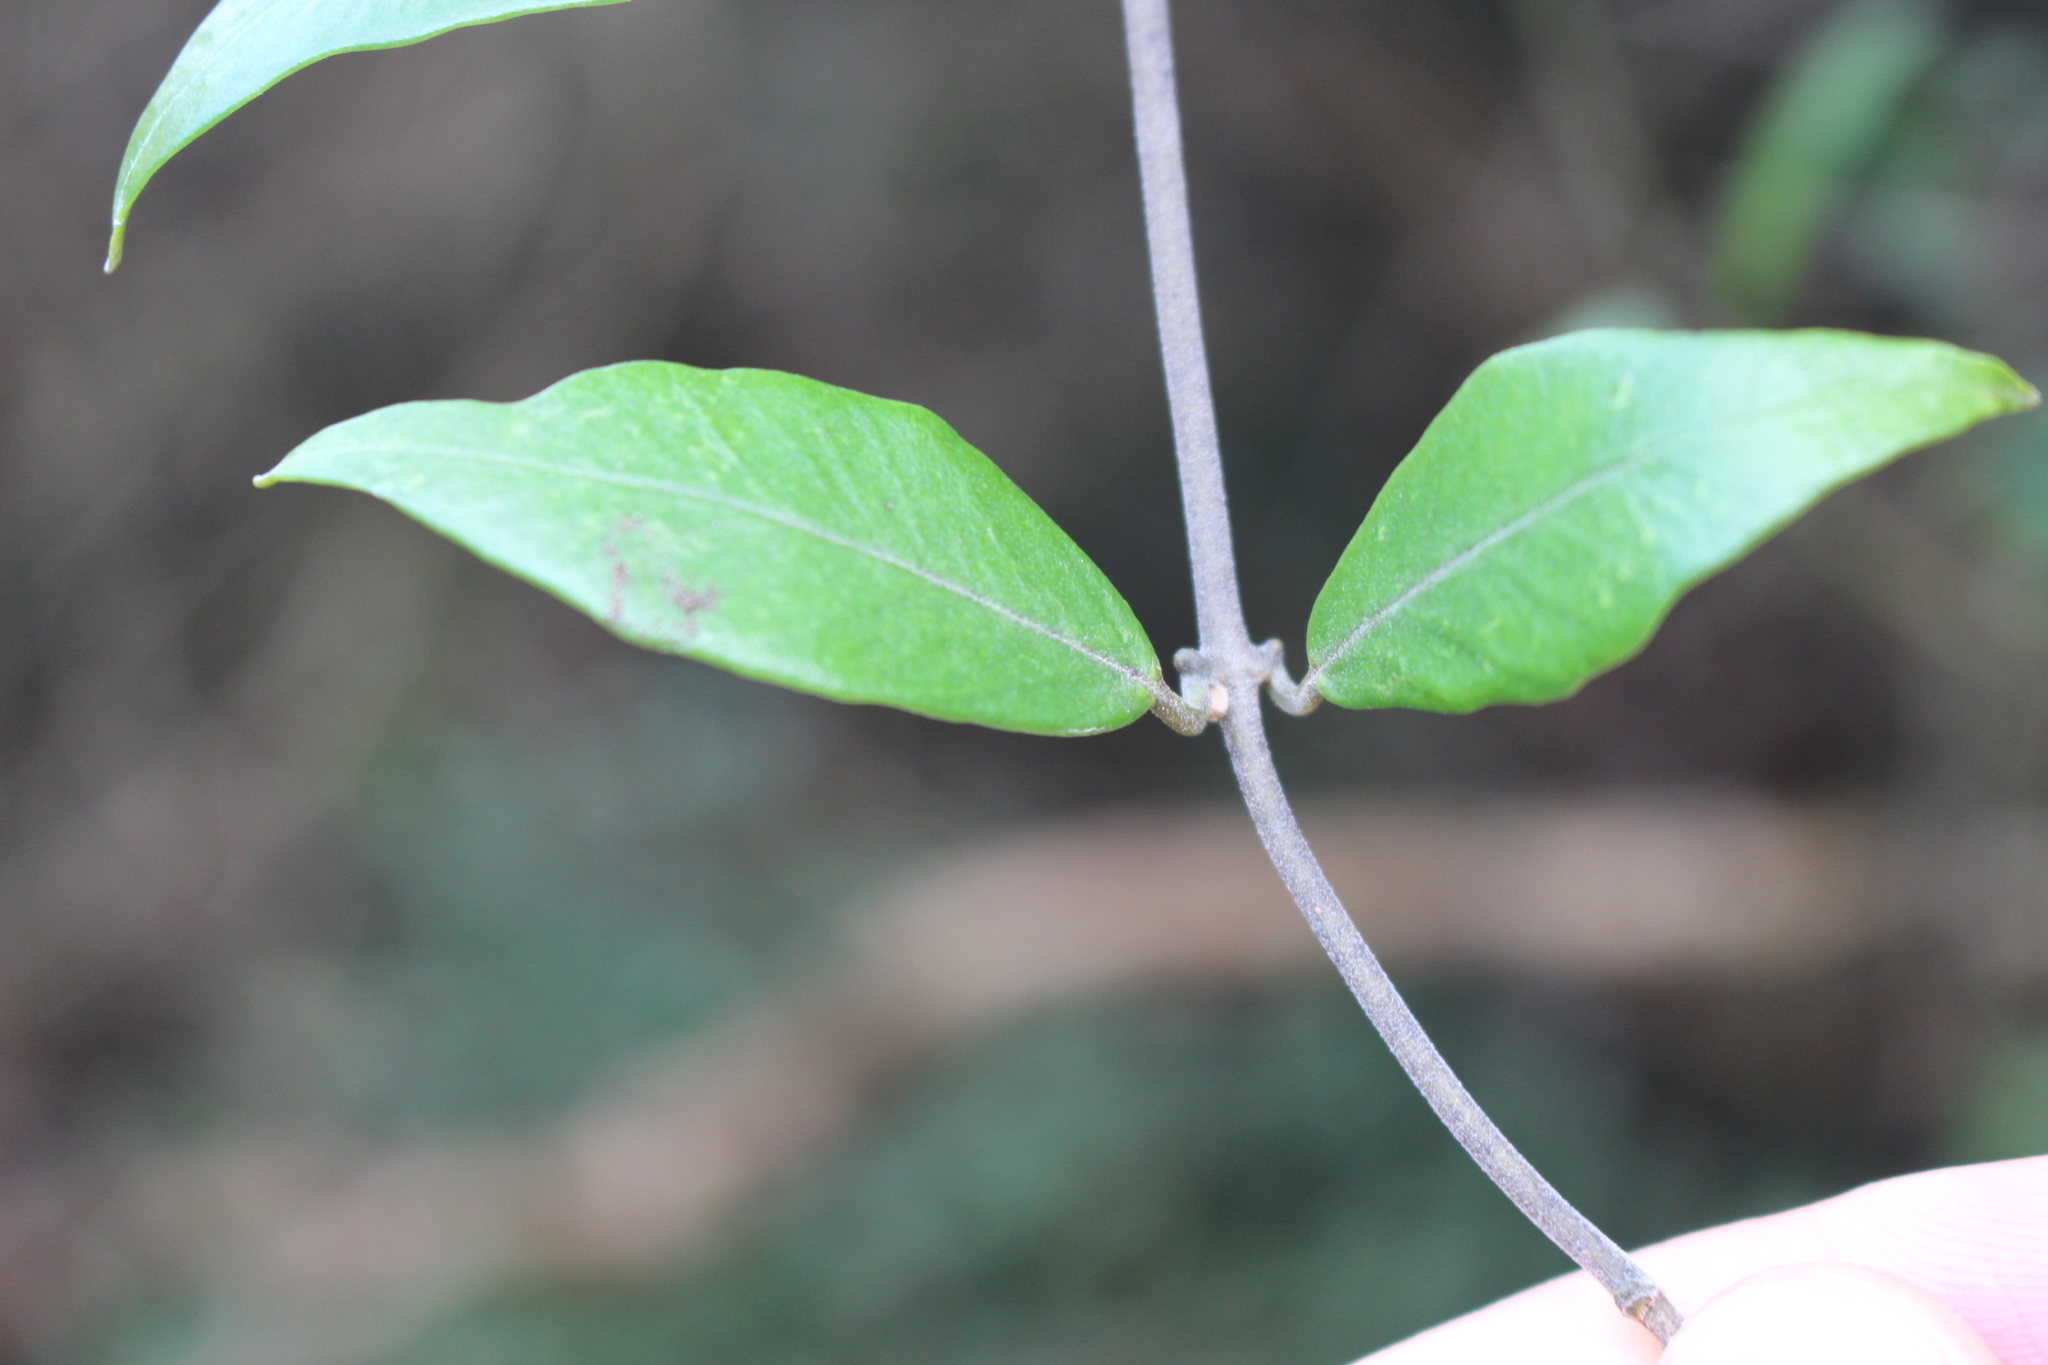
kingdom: Plantae
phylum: Tracheophyta
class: Magnoliopsida
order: Gentianales
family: Apocynaceae
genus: Parsonsia
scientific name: Parsonsia heterophylla
